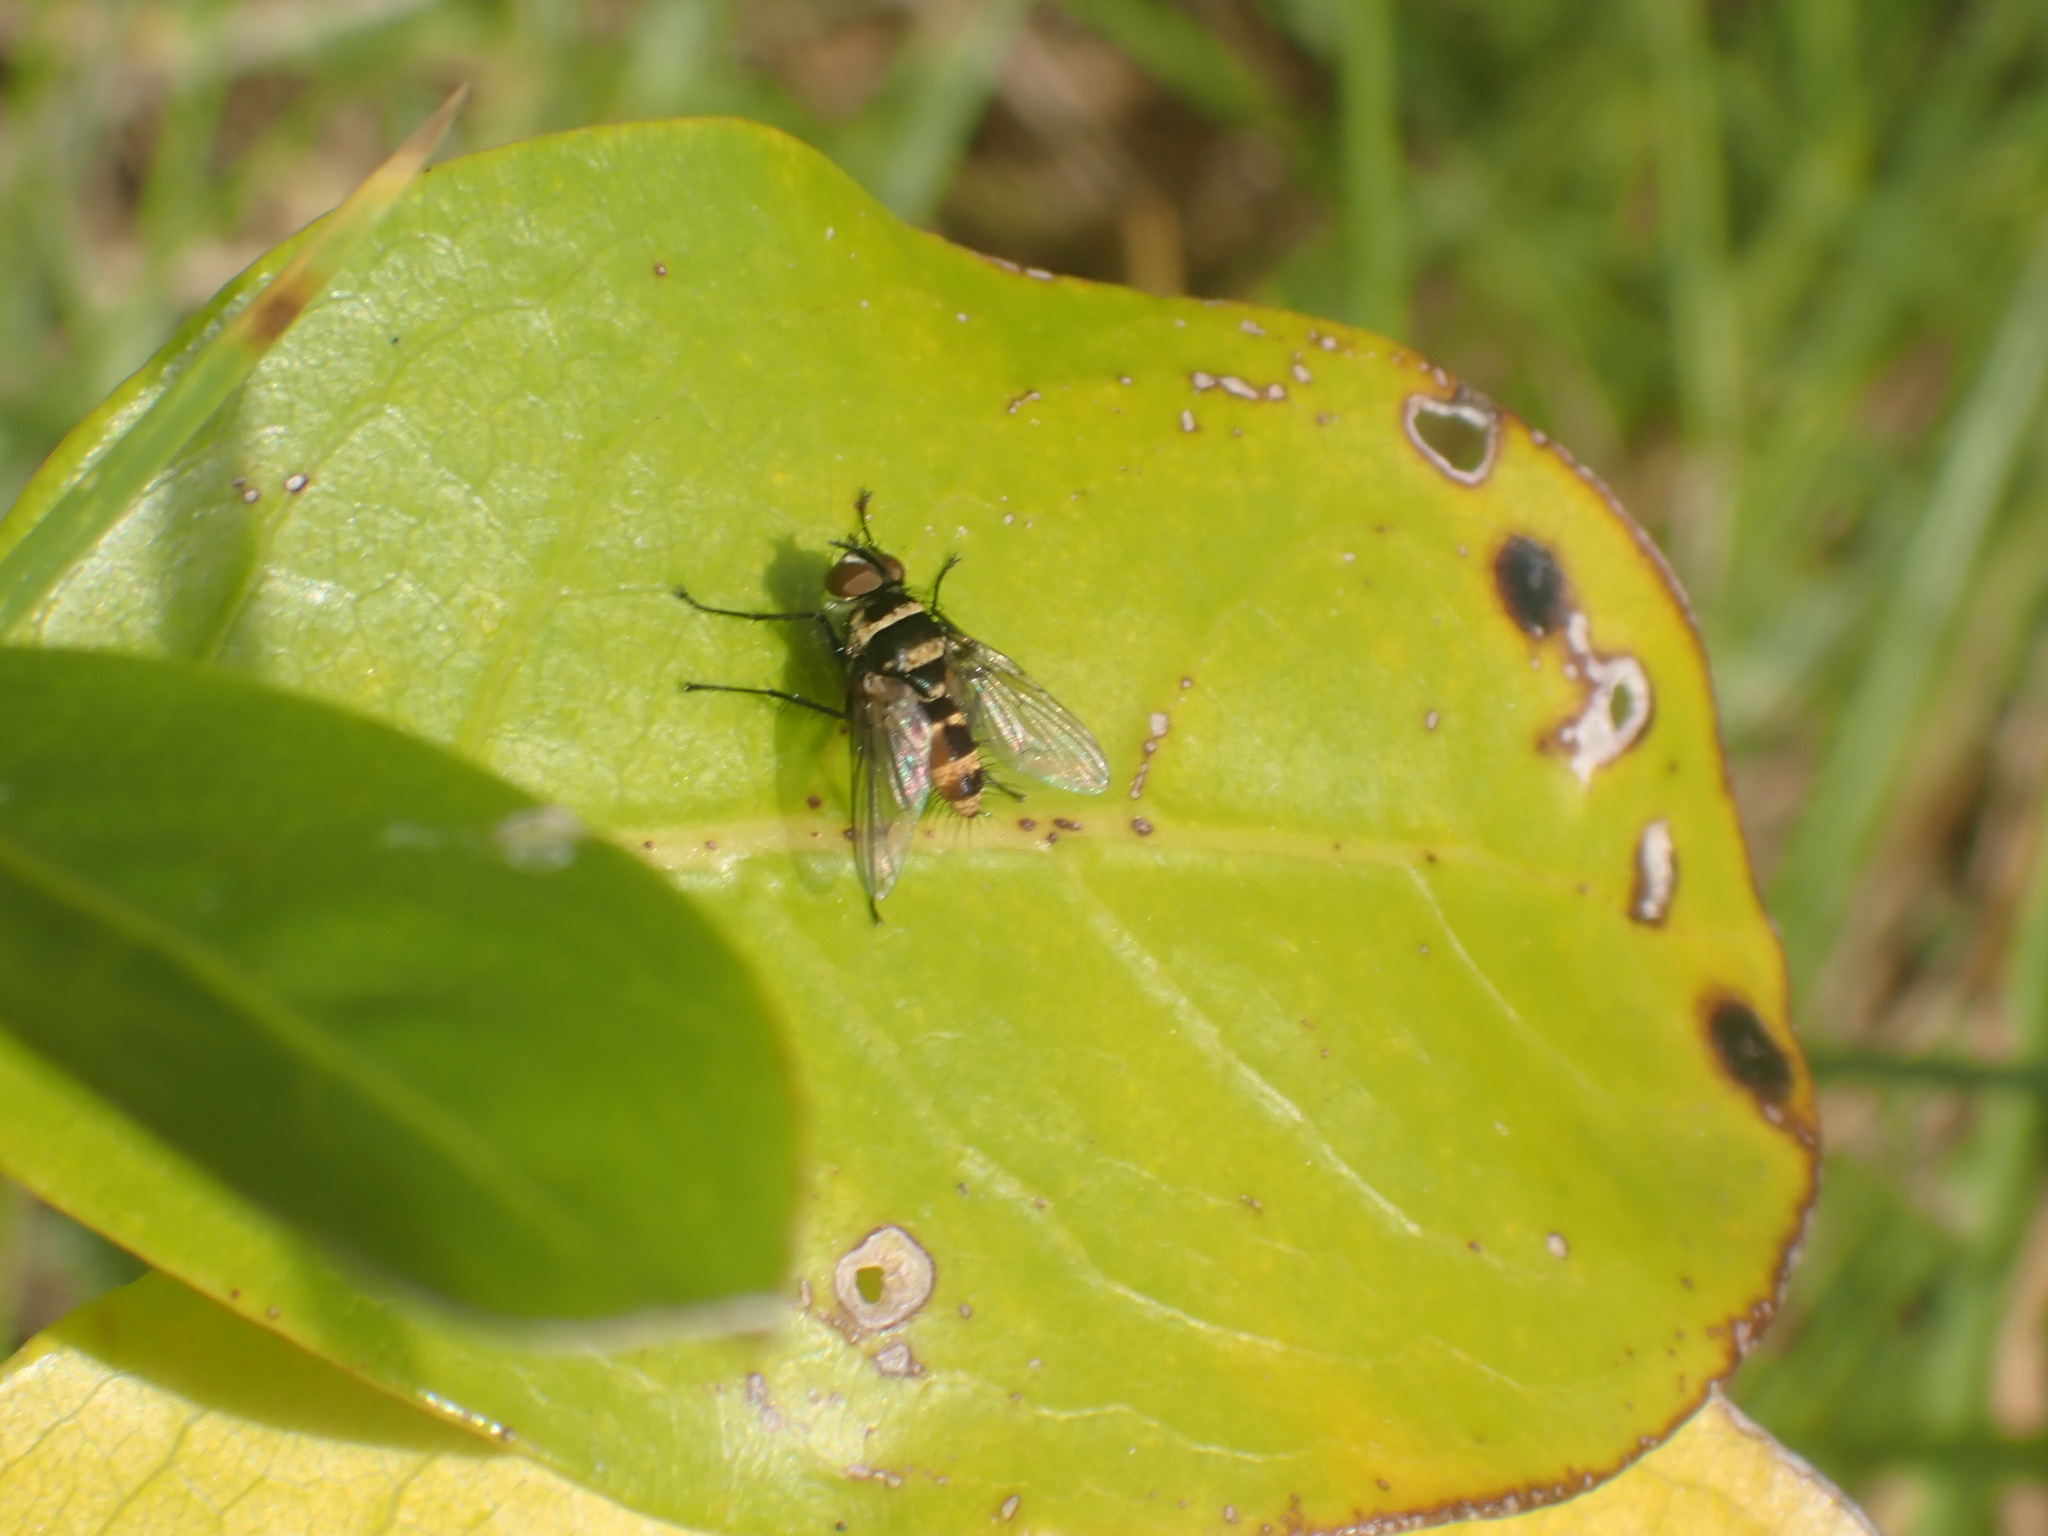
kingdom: Animalia
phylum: Arthropoda
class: Insecta
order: Diptera
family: Tachinidae
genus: Trigonospila
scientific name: Trigonospila brevifacies
